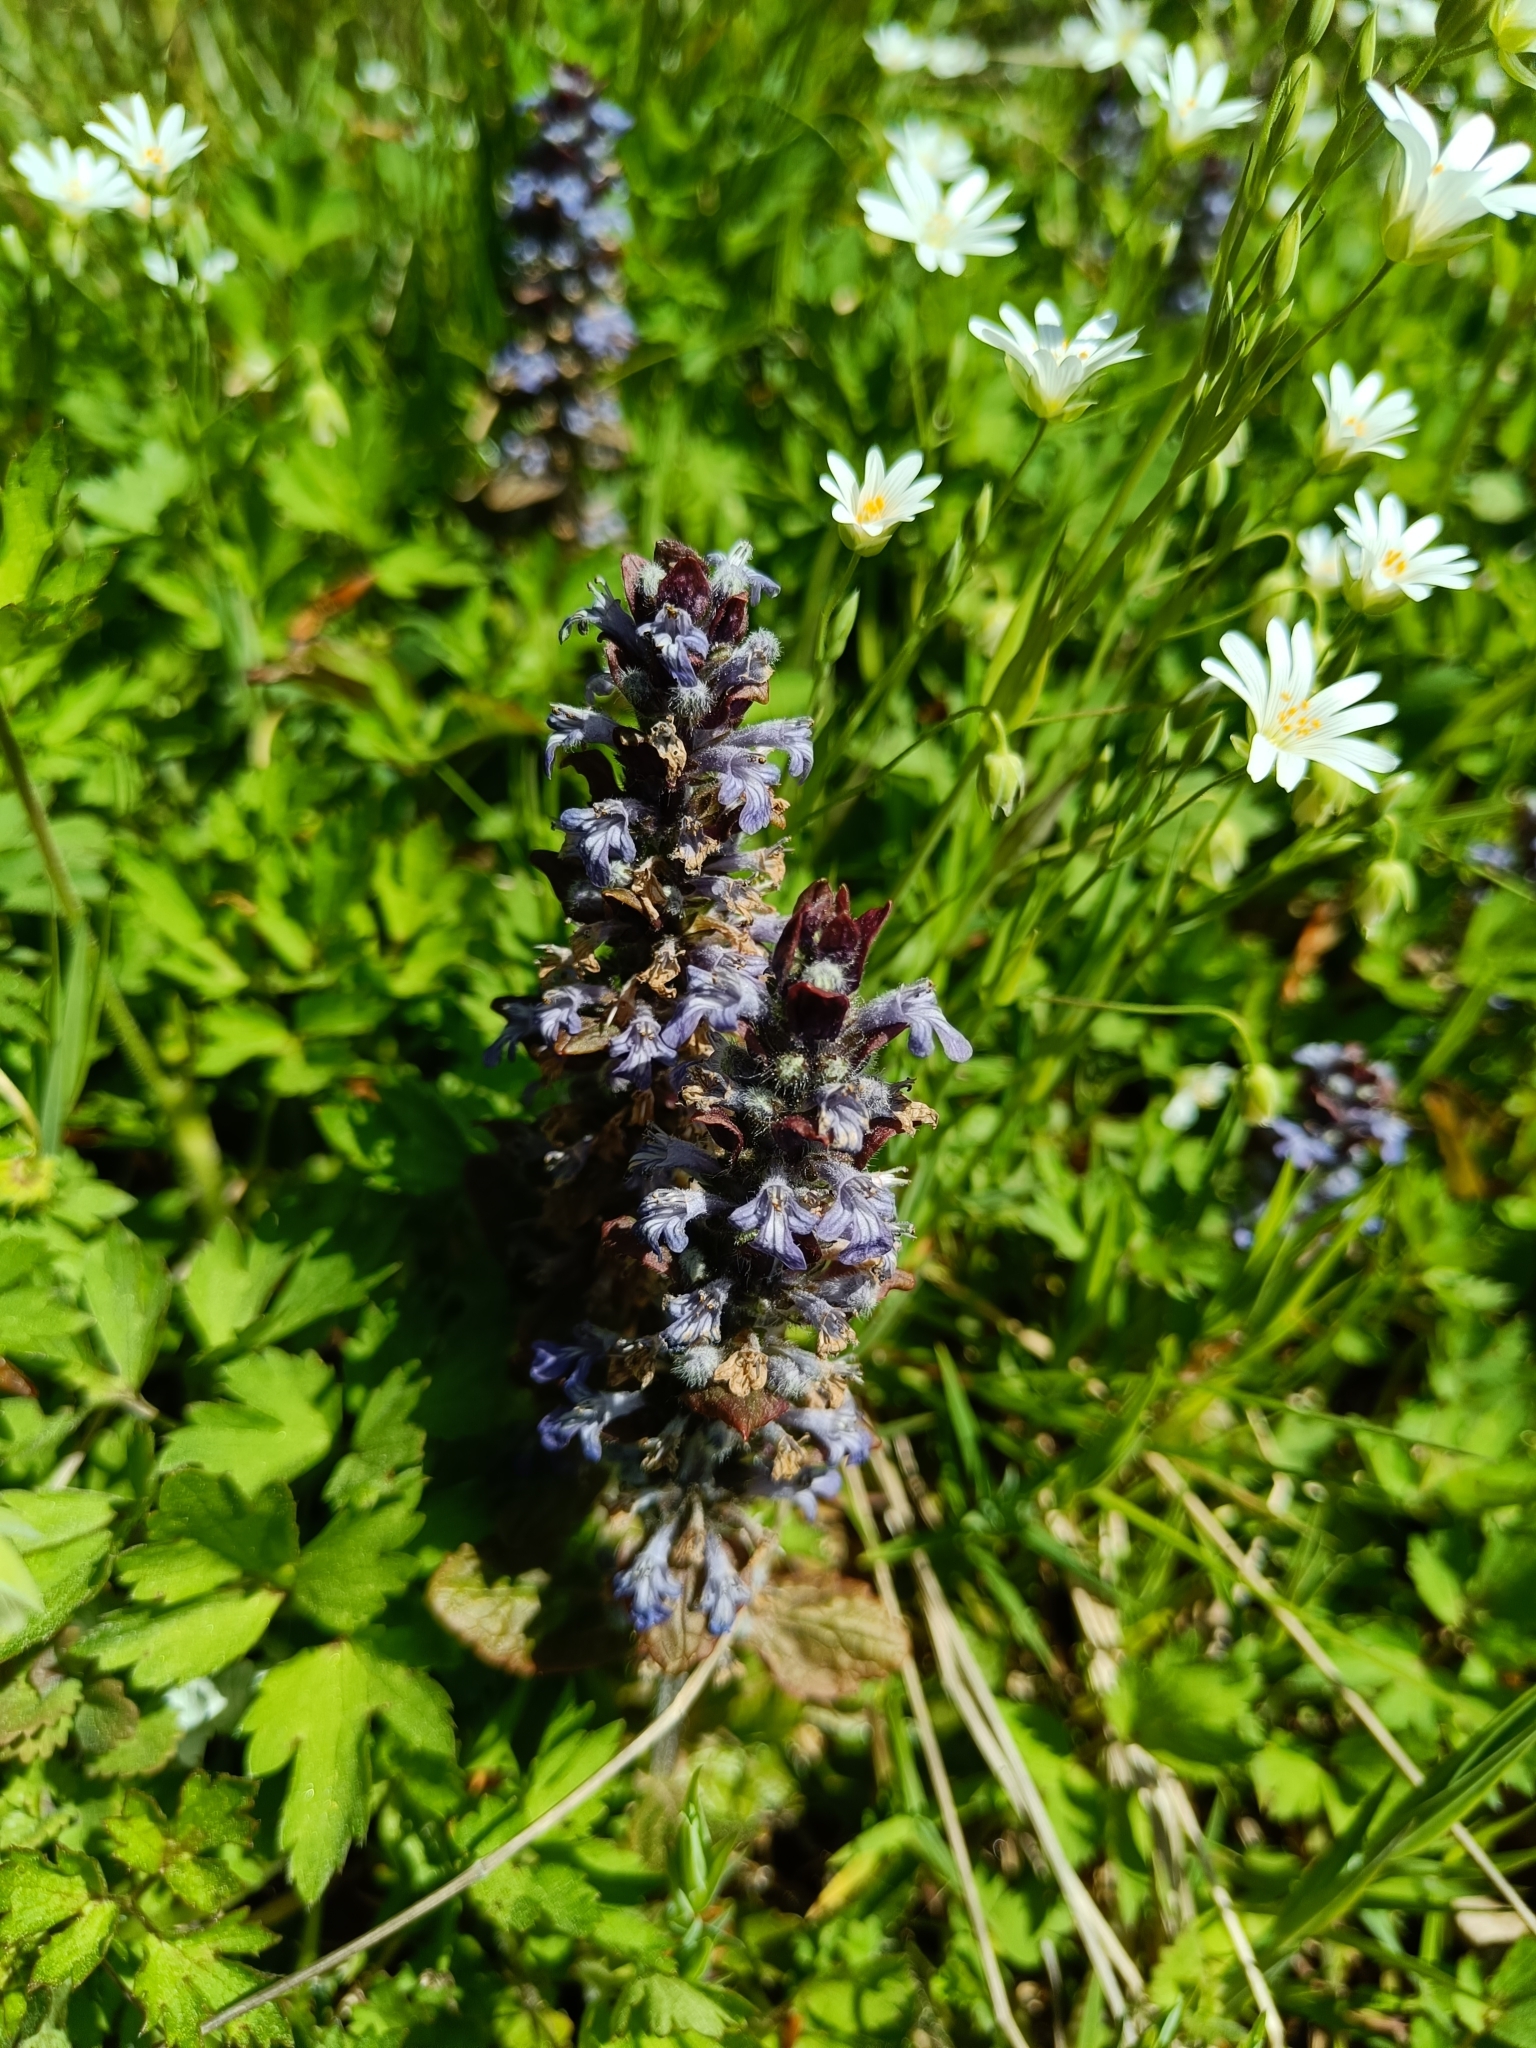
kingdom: Plantae
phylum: Tracheophyta
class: Magnoliopsida
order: Lamiales
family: Lamiaceae
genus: Ajuga
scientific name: Ajuga reptans
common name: Bugle
